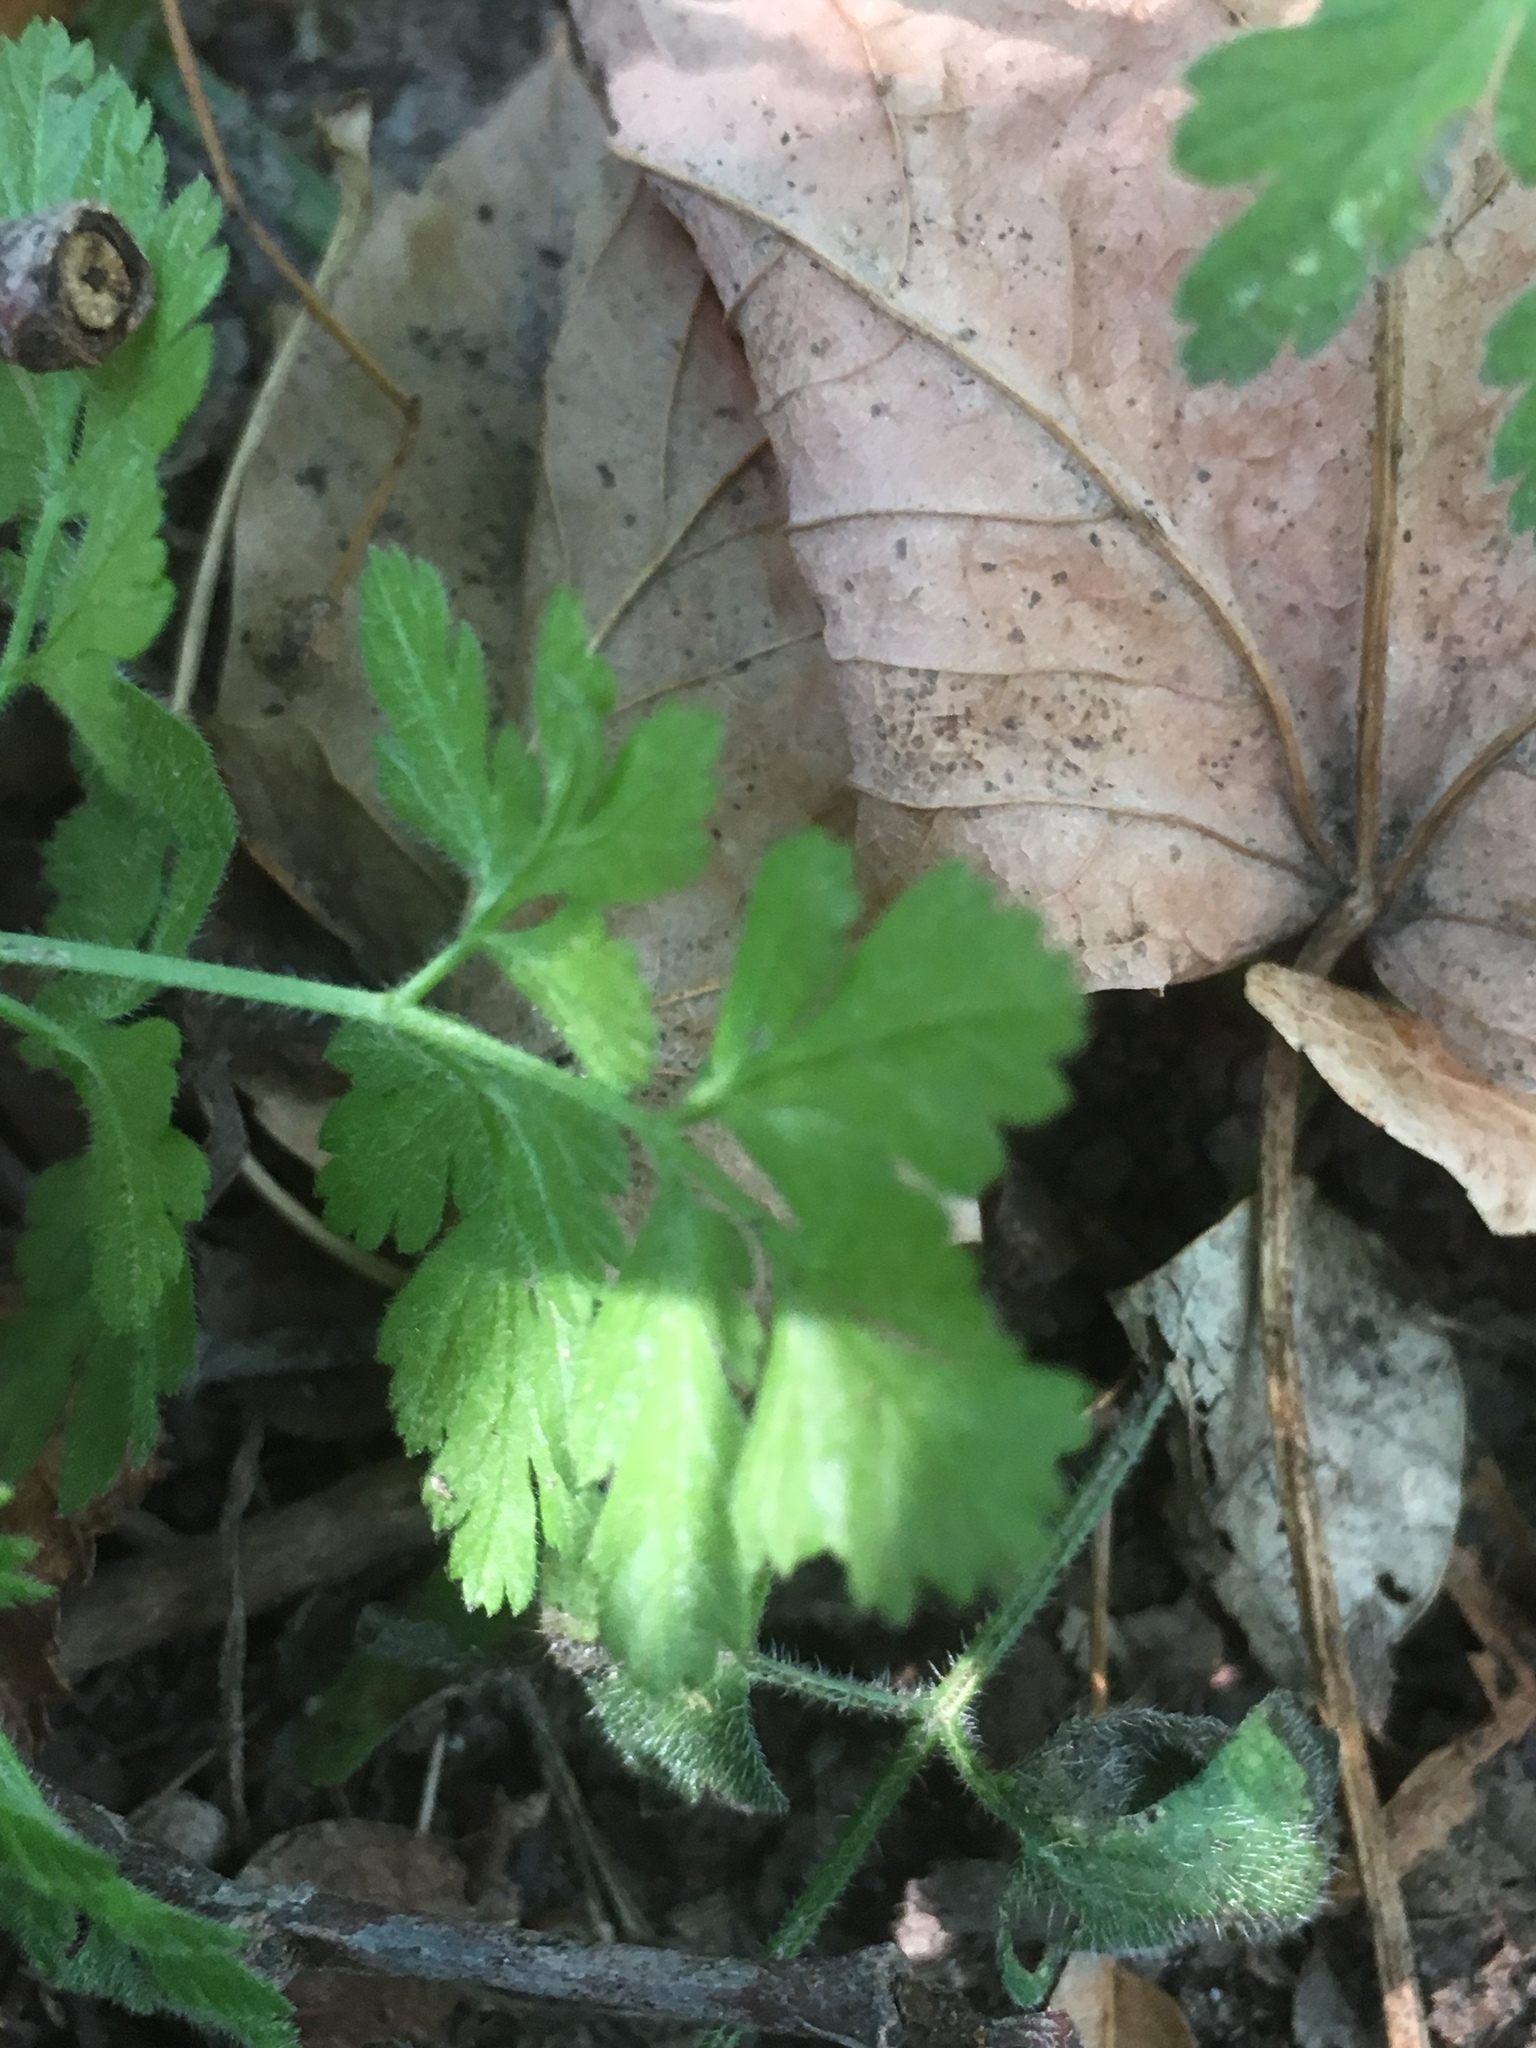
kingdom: Plantae
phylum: Tracheophyta
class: Magnoliopsida
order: Ranunculales
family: Papaveraceae
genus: Chelidonium
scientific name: Chelidonium majus
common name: Greater celandine
